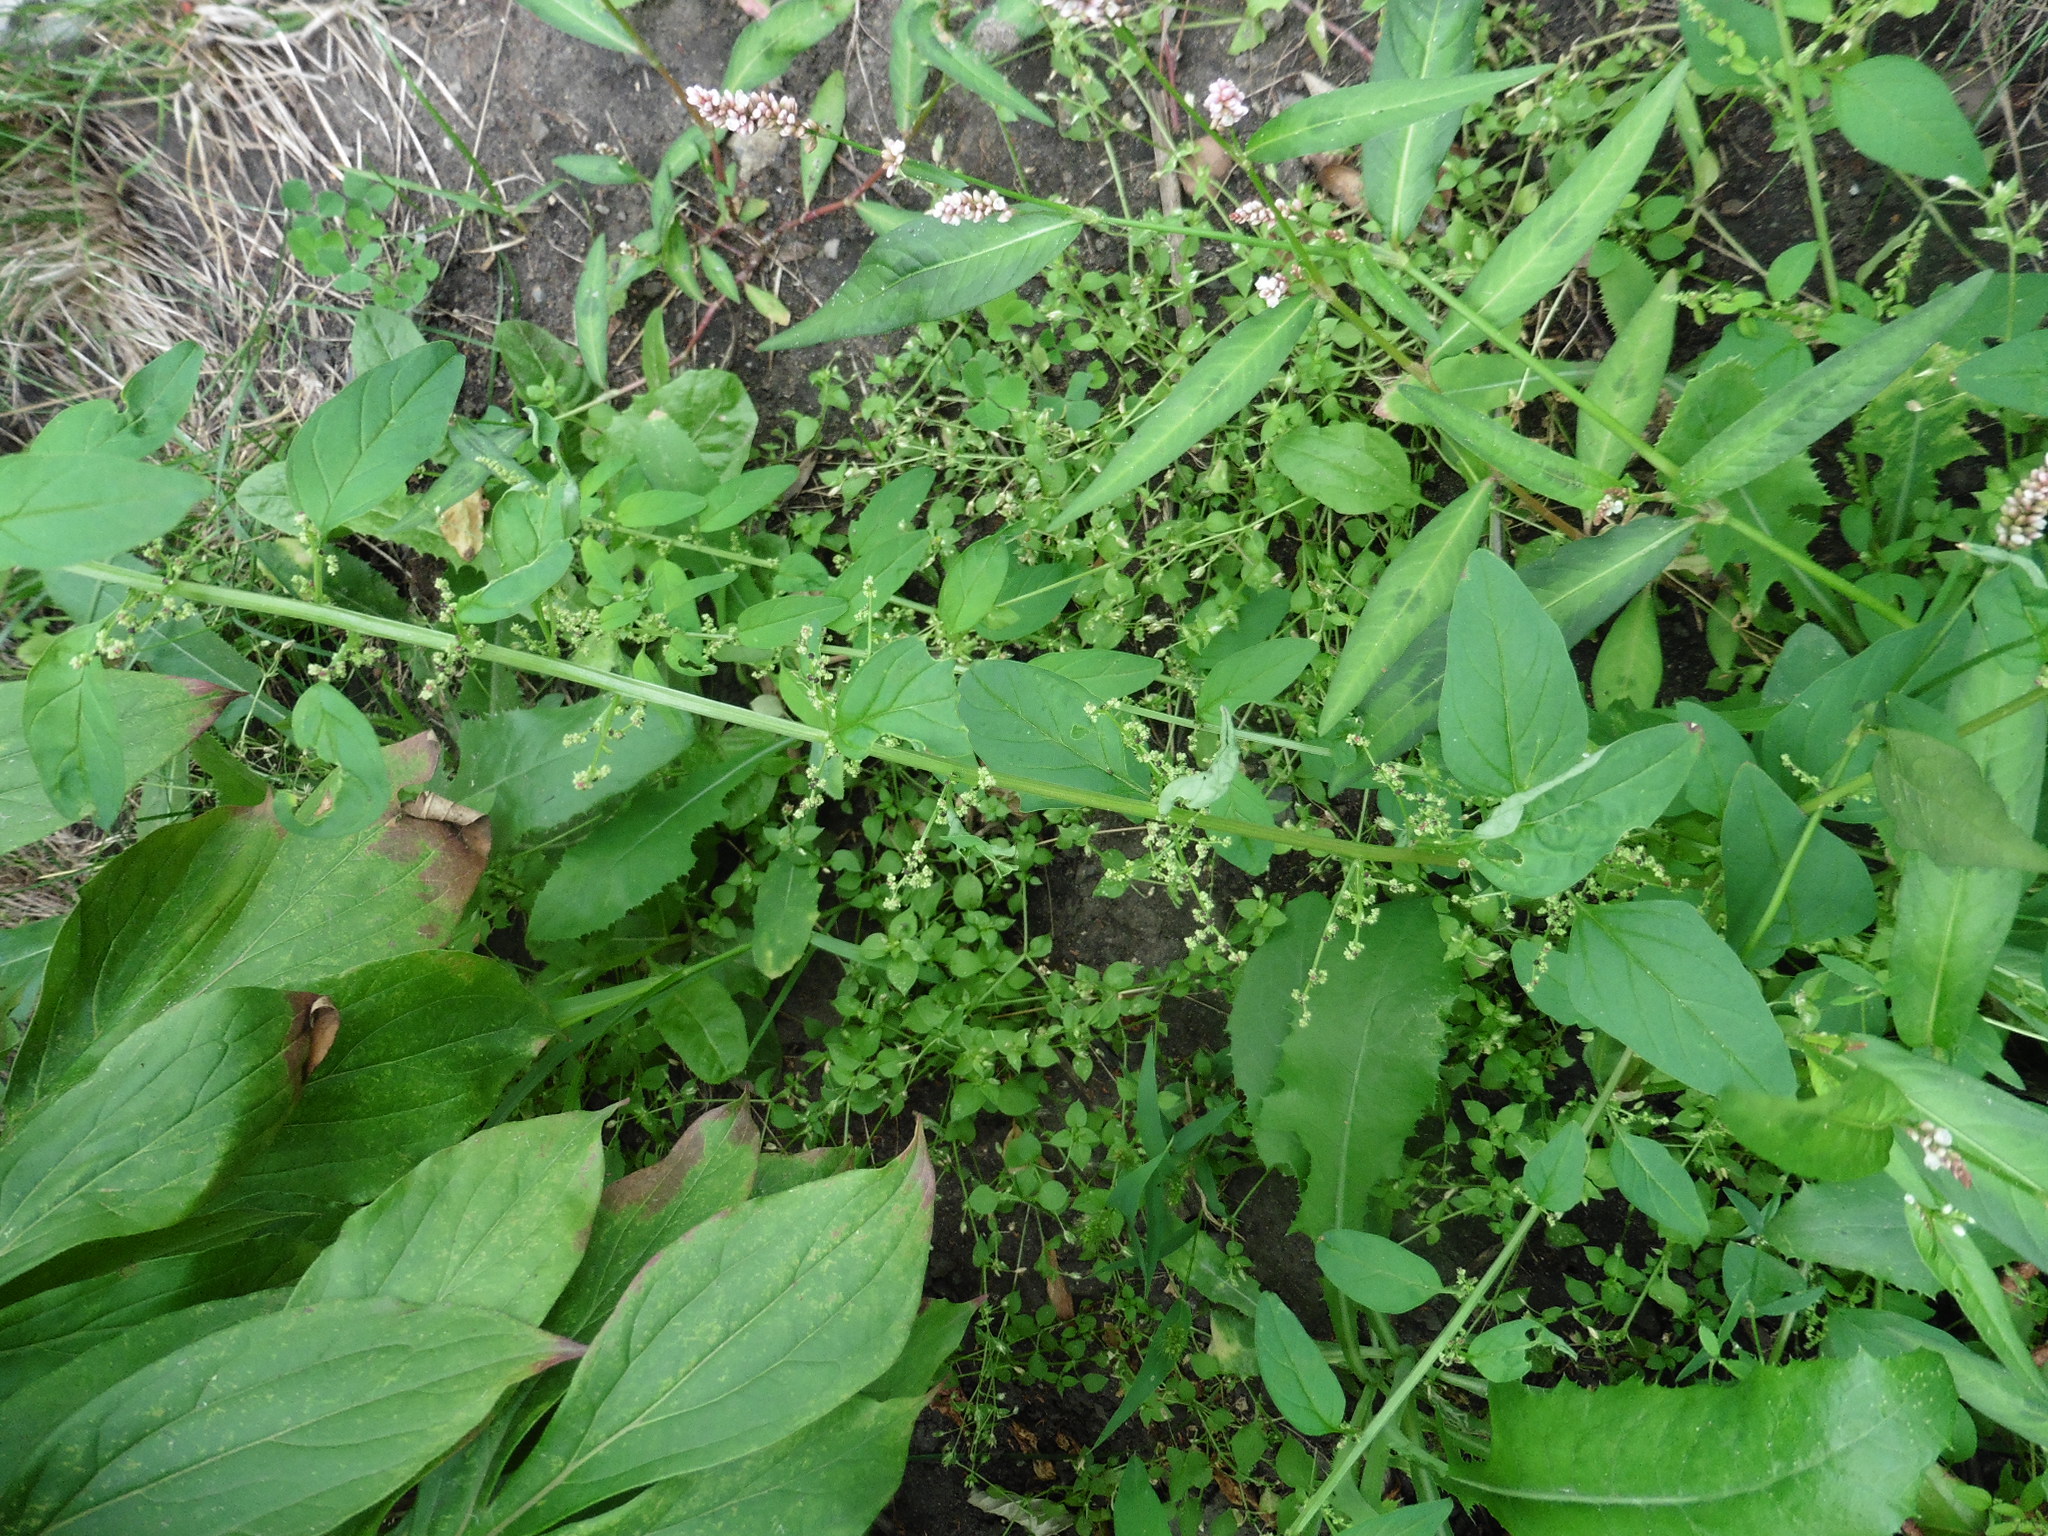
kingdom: Plantae
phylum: Tracheophyta
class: Magnoliopsida
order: Caryophyllales
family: Amaranthaceae
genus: Lipandra
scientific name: Lipandra polysperma
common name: Many-seed goosefoot
